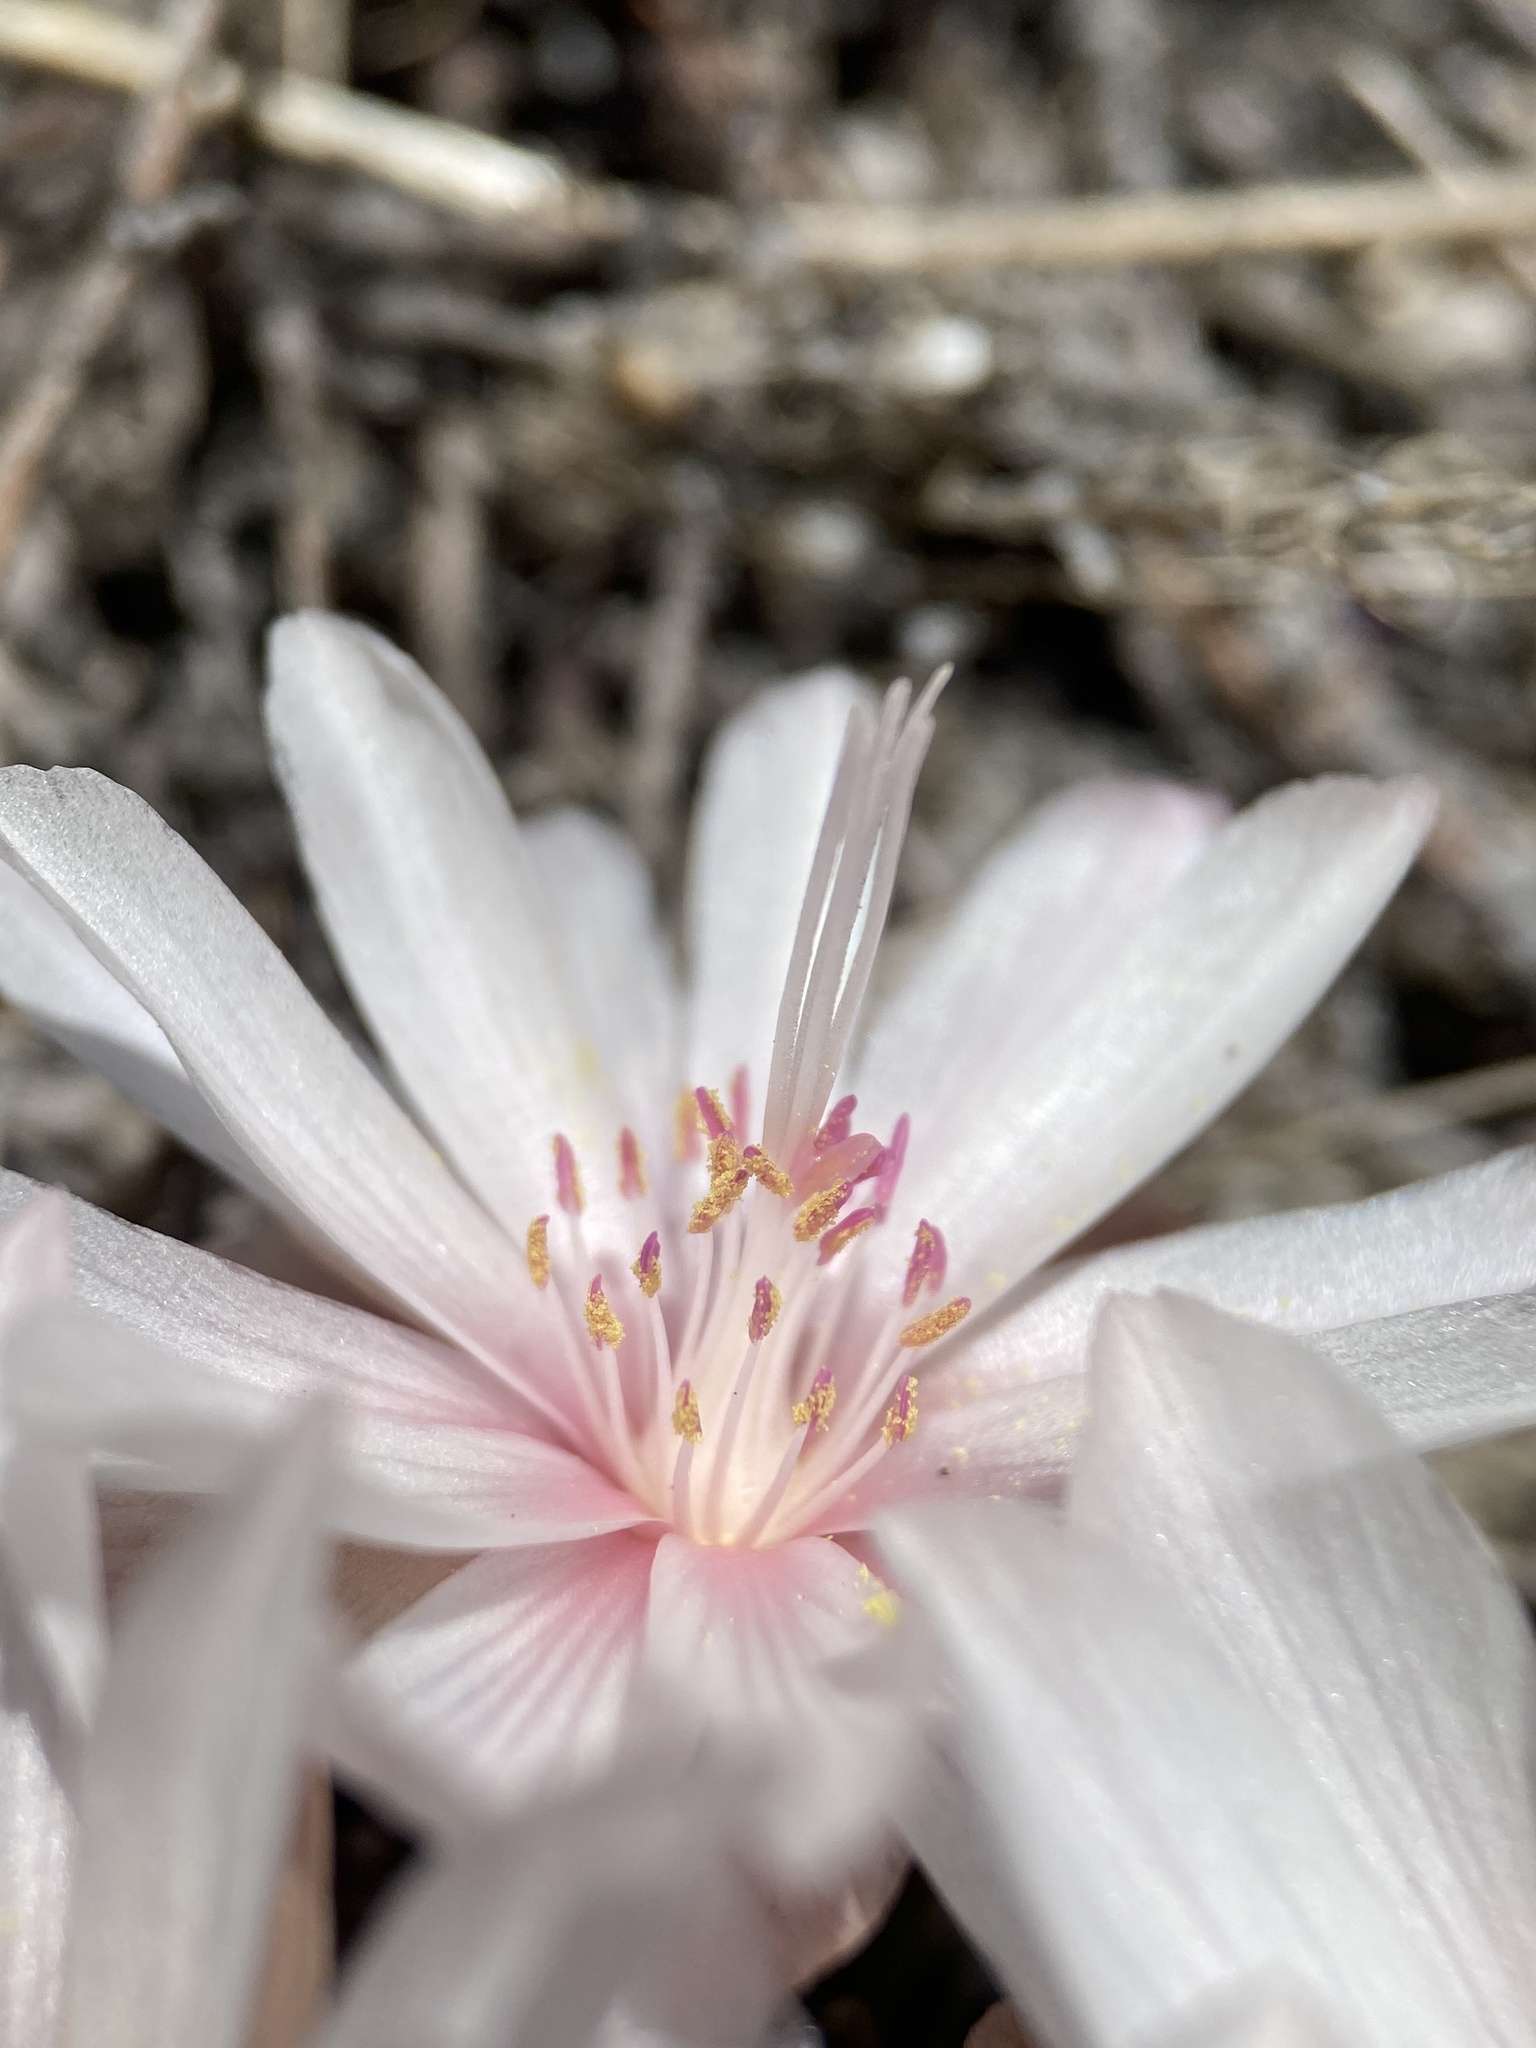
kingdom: Plantae
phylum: Tracheophyta
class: Magnoliopsida
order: Caryophyllales
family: Montiaceae
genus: Lewisia
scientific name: Lewisia rediviva
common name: Bitter-root
